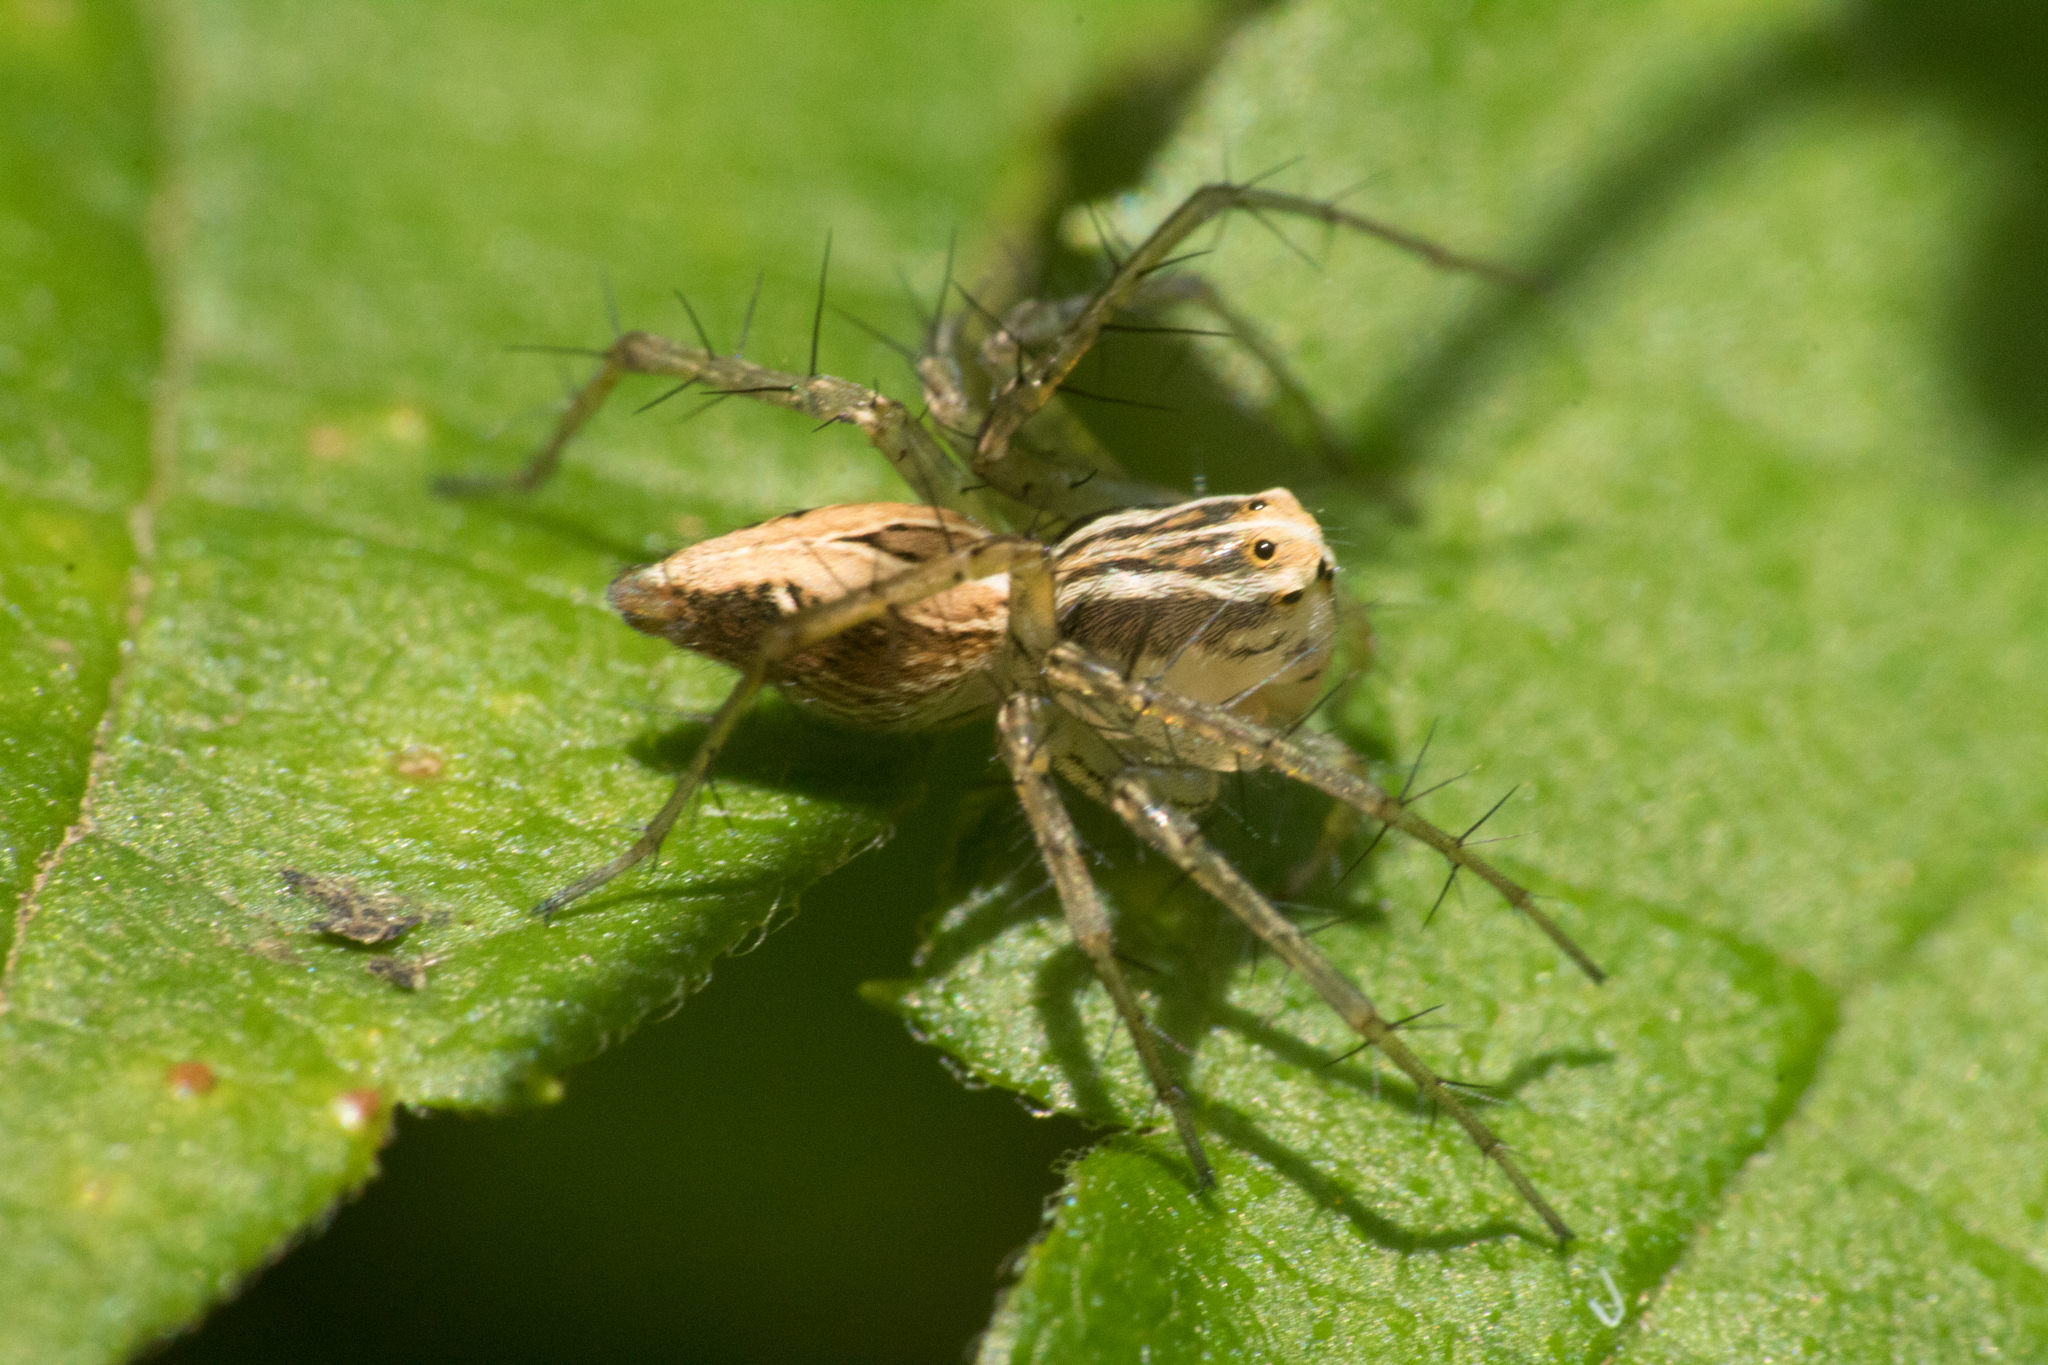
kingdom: Animalia
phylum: Arthropoda
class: Arachnida
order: Araneae
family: Oxyopidae
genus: Oxyopes
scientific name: Oxyopes salticus
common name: Lynx spiders
